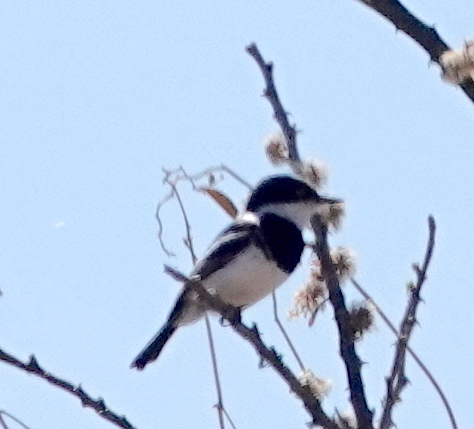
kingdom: Animalia
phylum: Chordata
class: Aves
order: Passeriformes
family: Platysteiridae
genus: Batis
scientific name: Batis pririt
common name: Pririt batis
